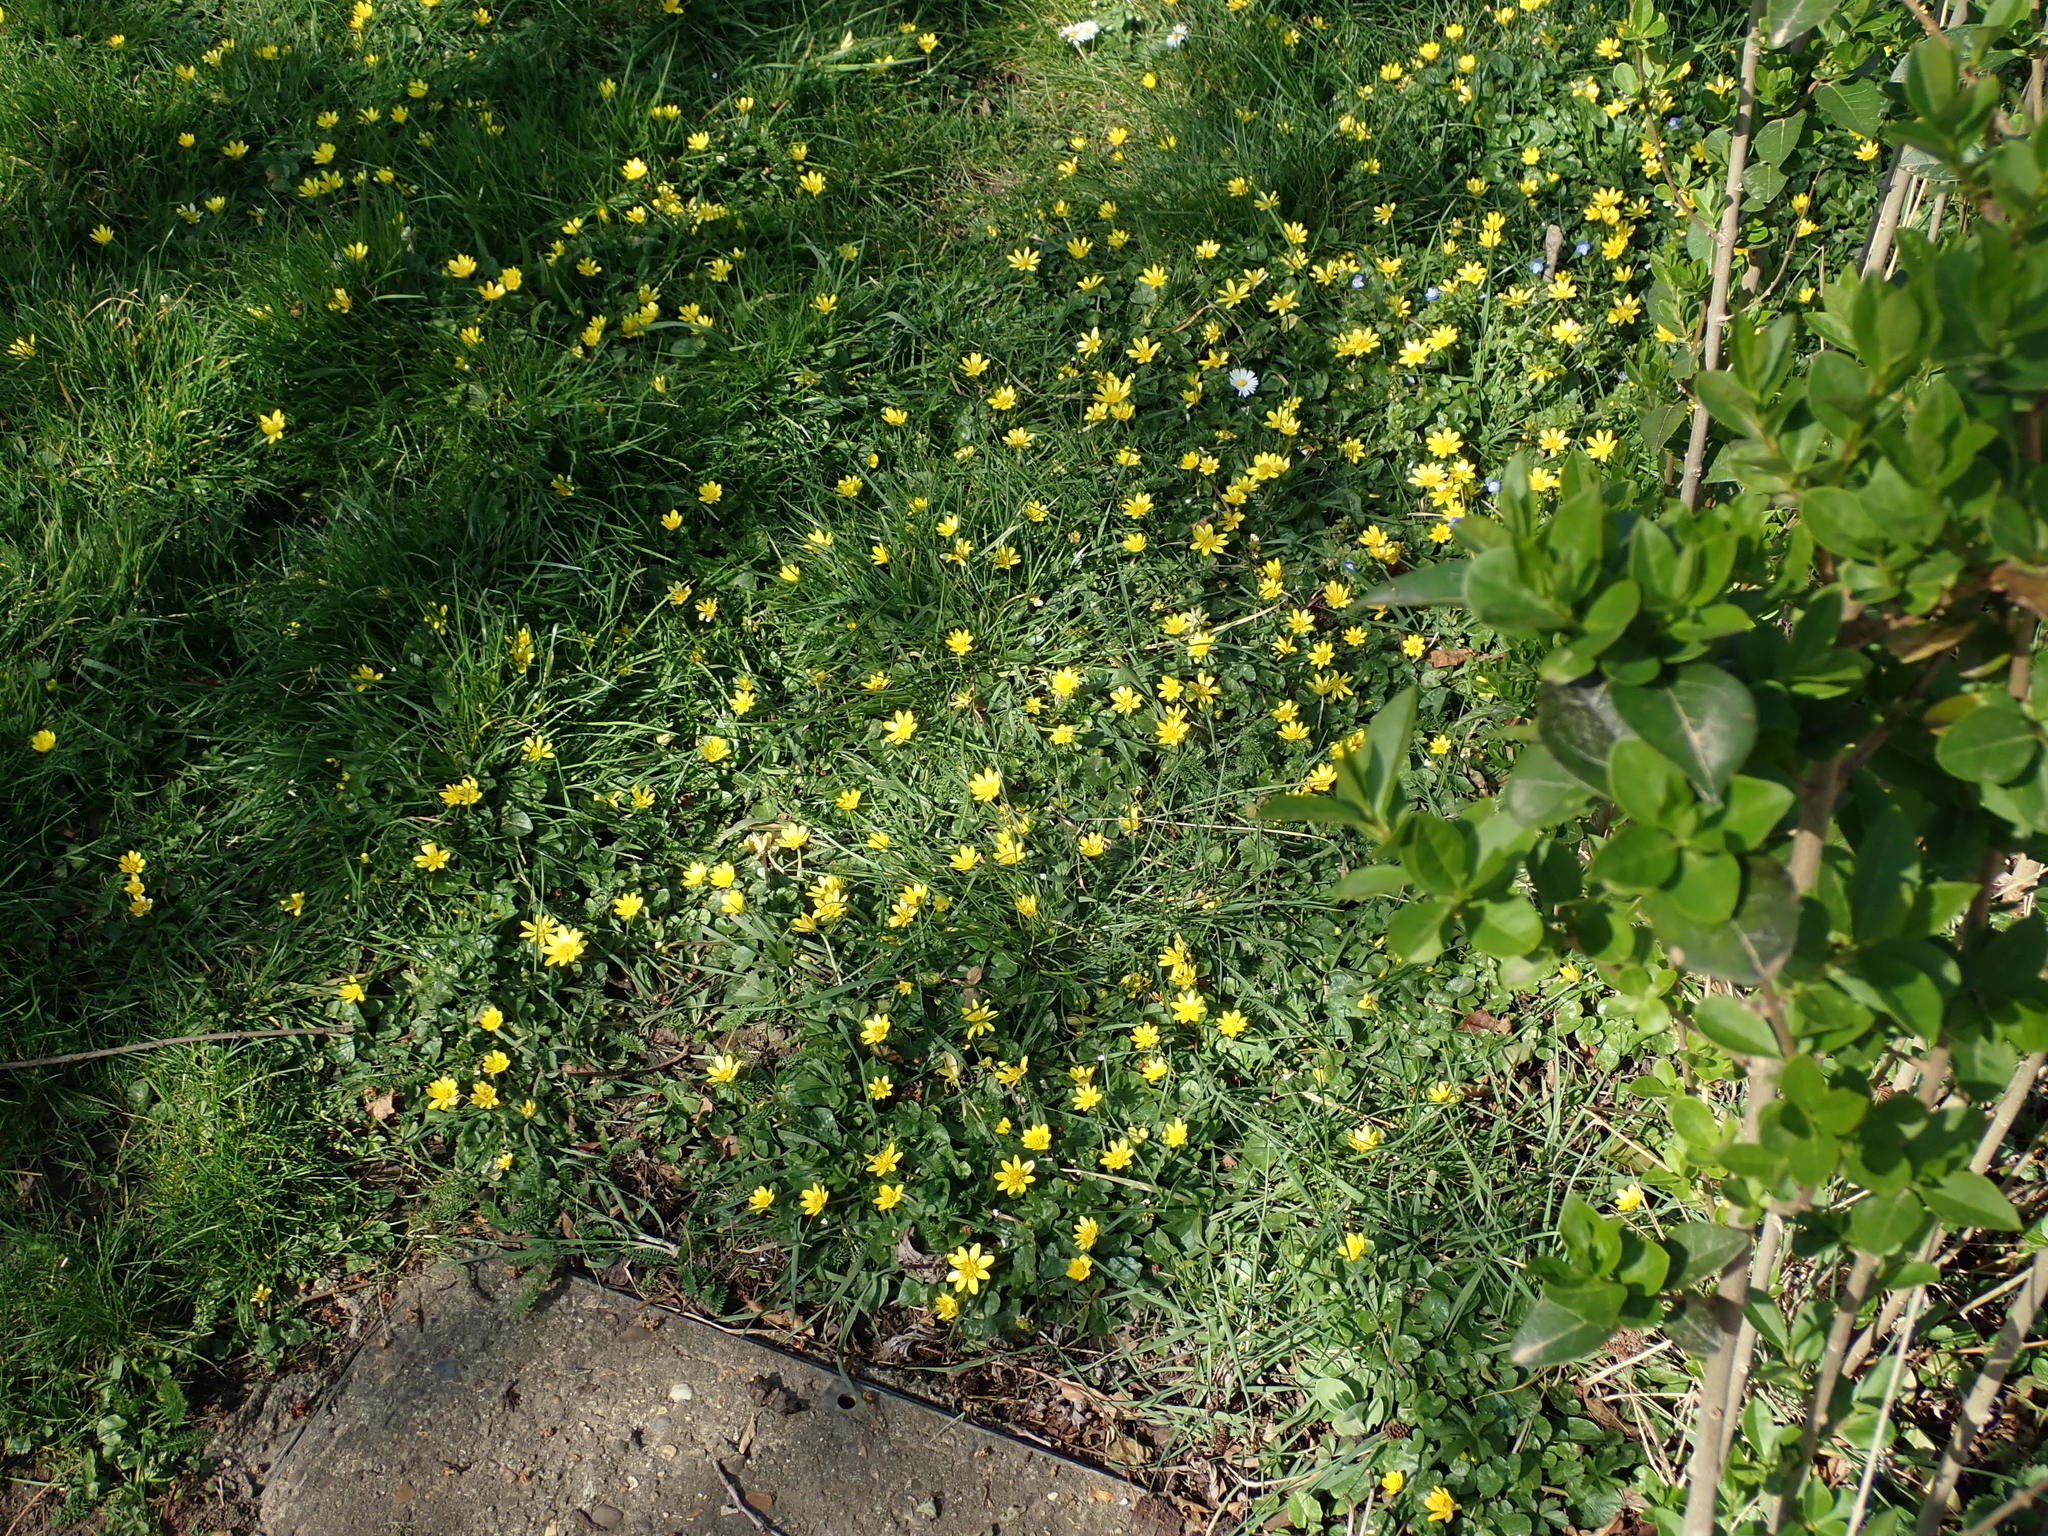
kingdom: Plantae
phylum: Tracheophyta
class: Magnoliopsida
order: Ranunculales
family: Ranunculaceae
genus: Ficaria
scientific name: Ficaria verna
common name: Lesser celandine
